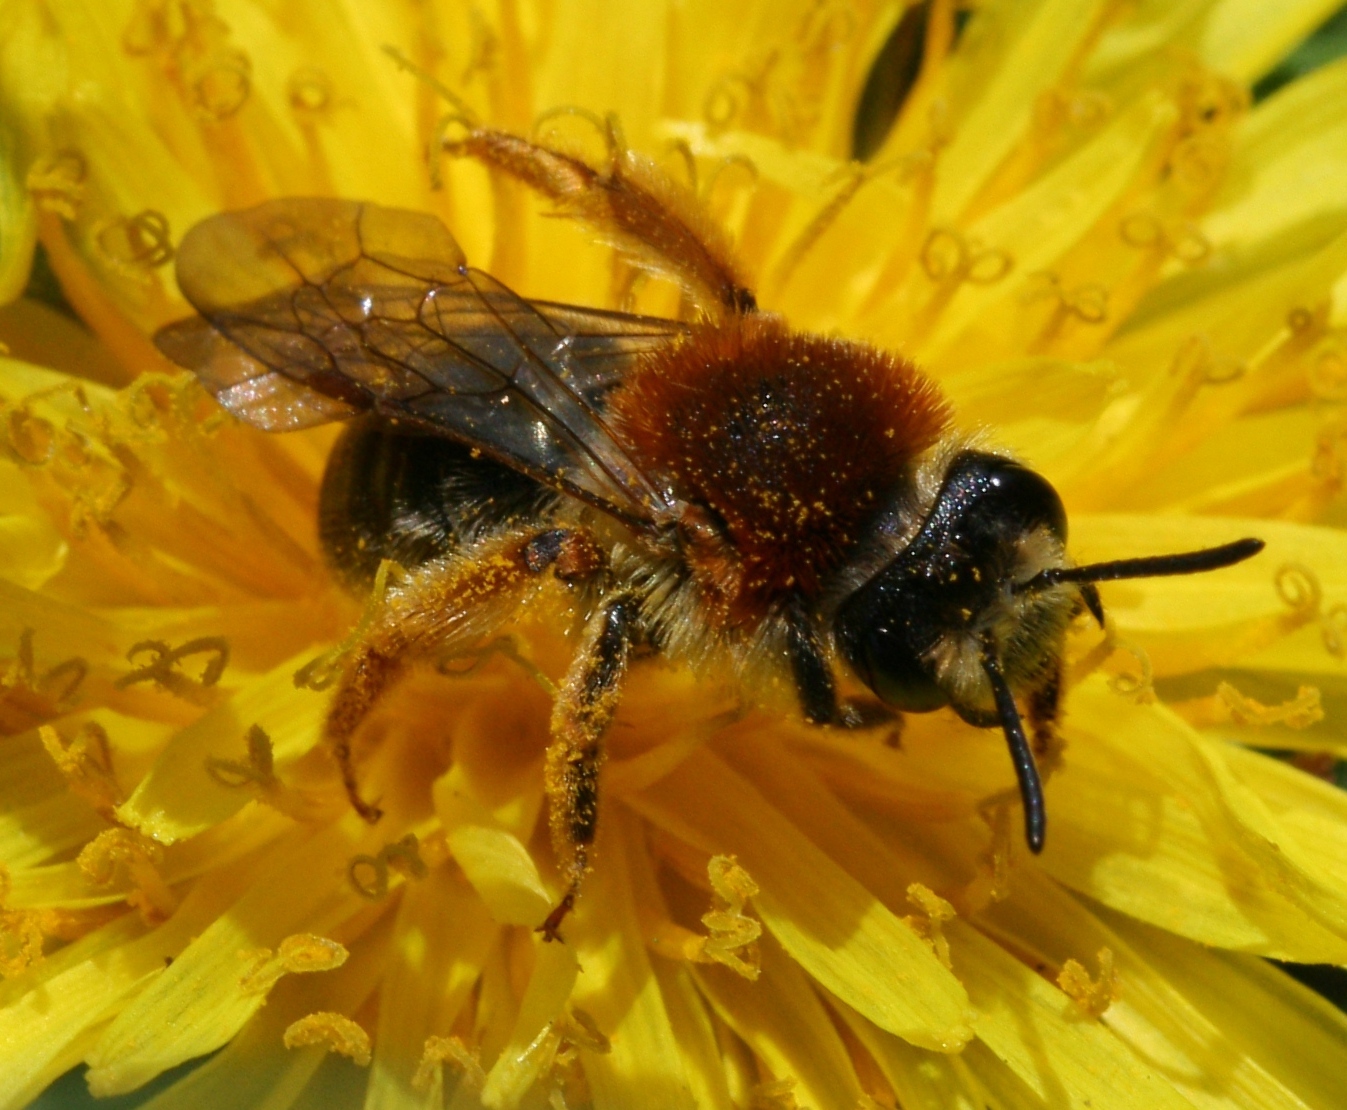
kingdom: Animalia
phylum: Arthropoda
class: Insecta
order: Hymenoptera
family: Andrenidae
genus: Andrena
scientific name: Andrena haemorrhoa
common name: Early mining bee
